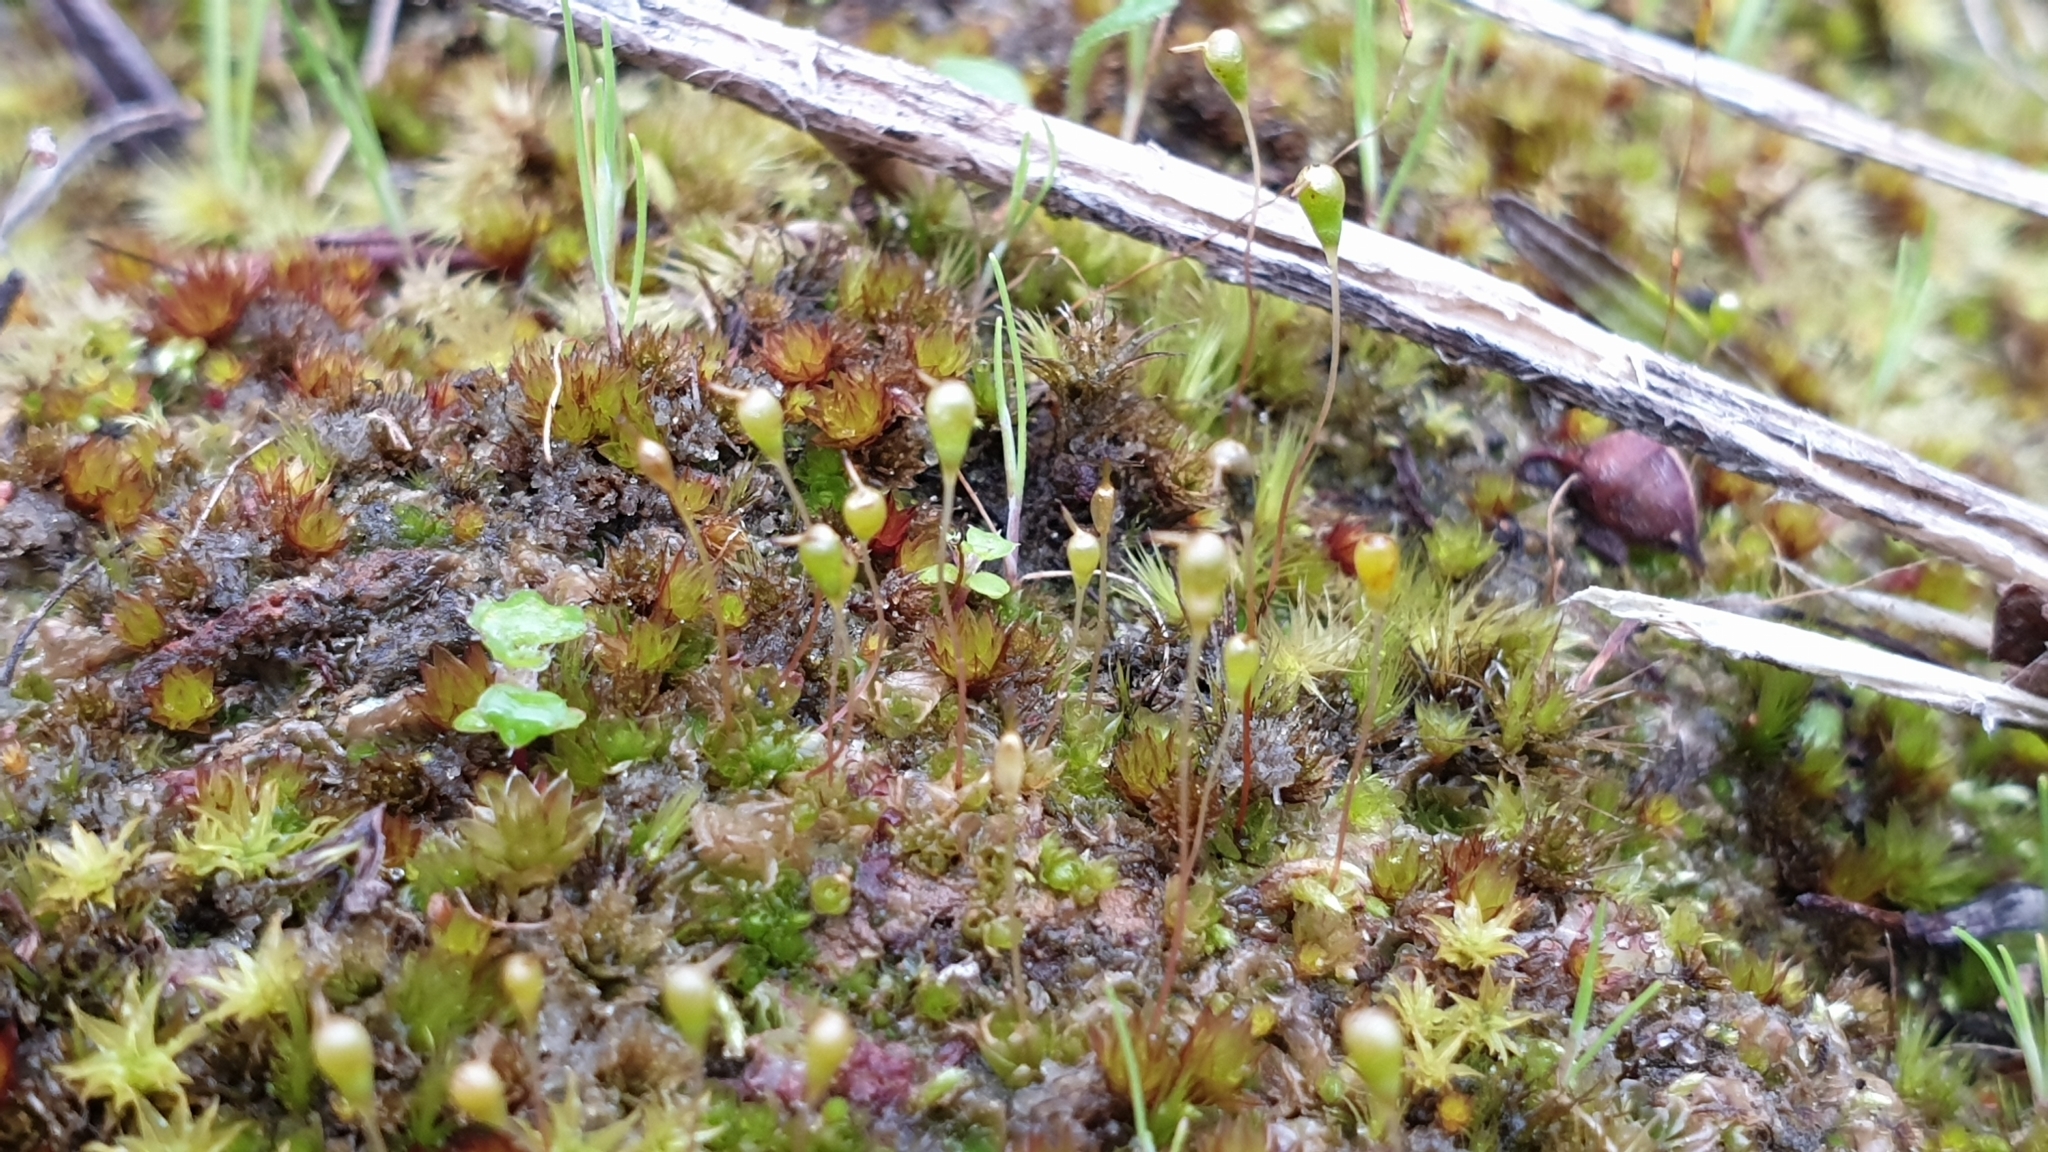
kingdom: Plantae
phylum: Bryophyta
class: Bryopsida
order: Funariales
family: Funariaceae
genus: Entosthodon
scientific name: Entosthodon subnudus
